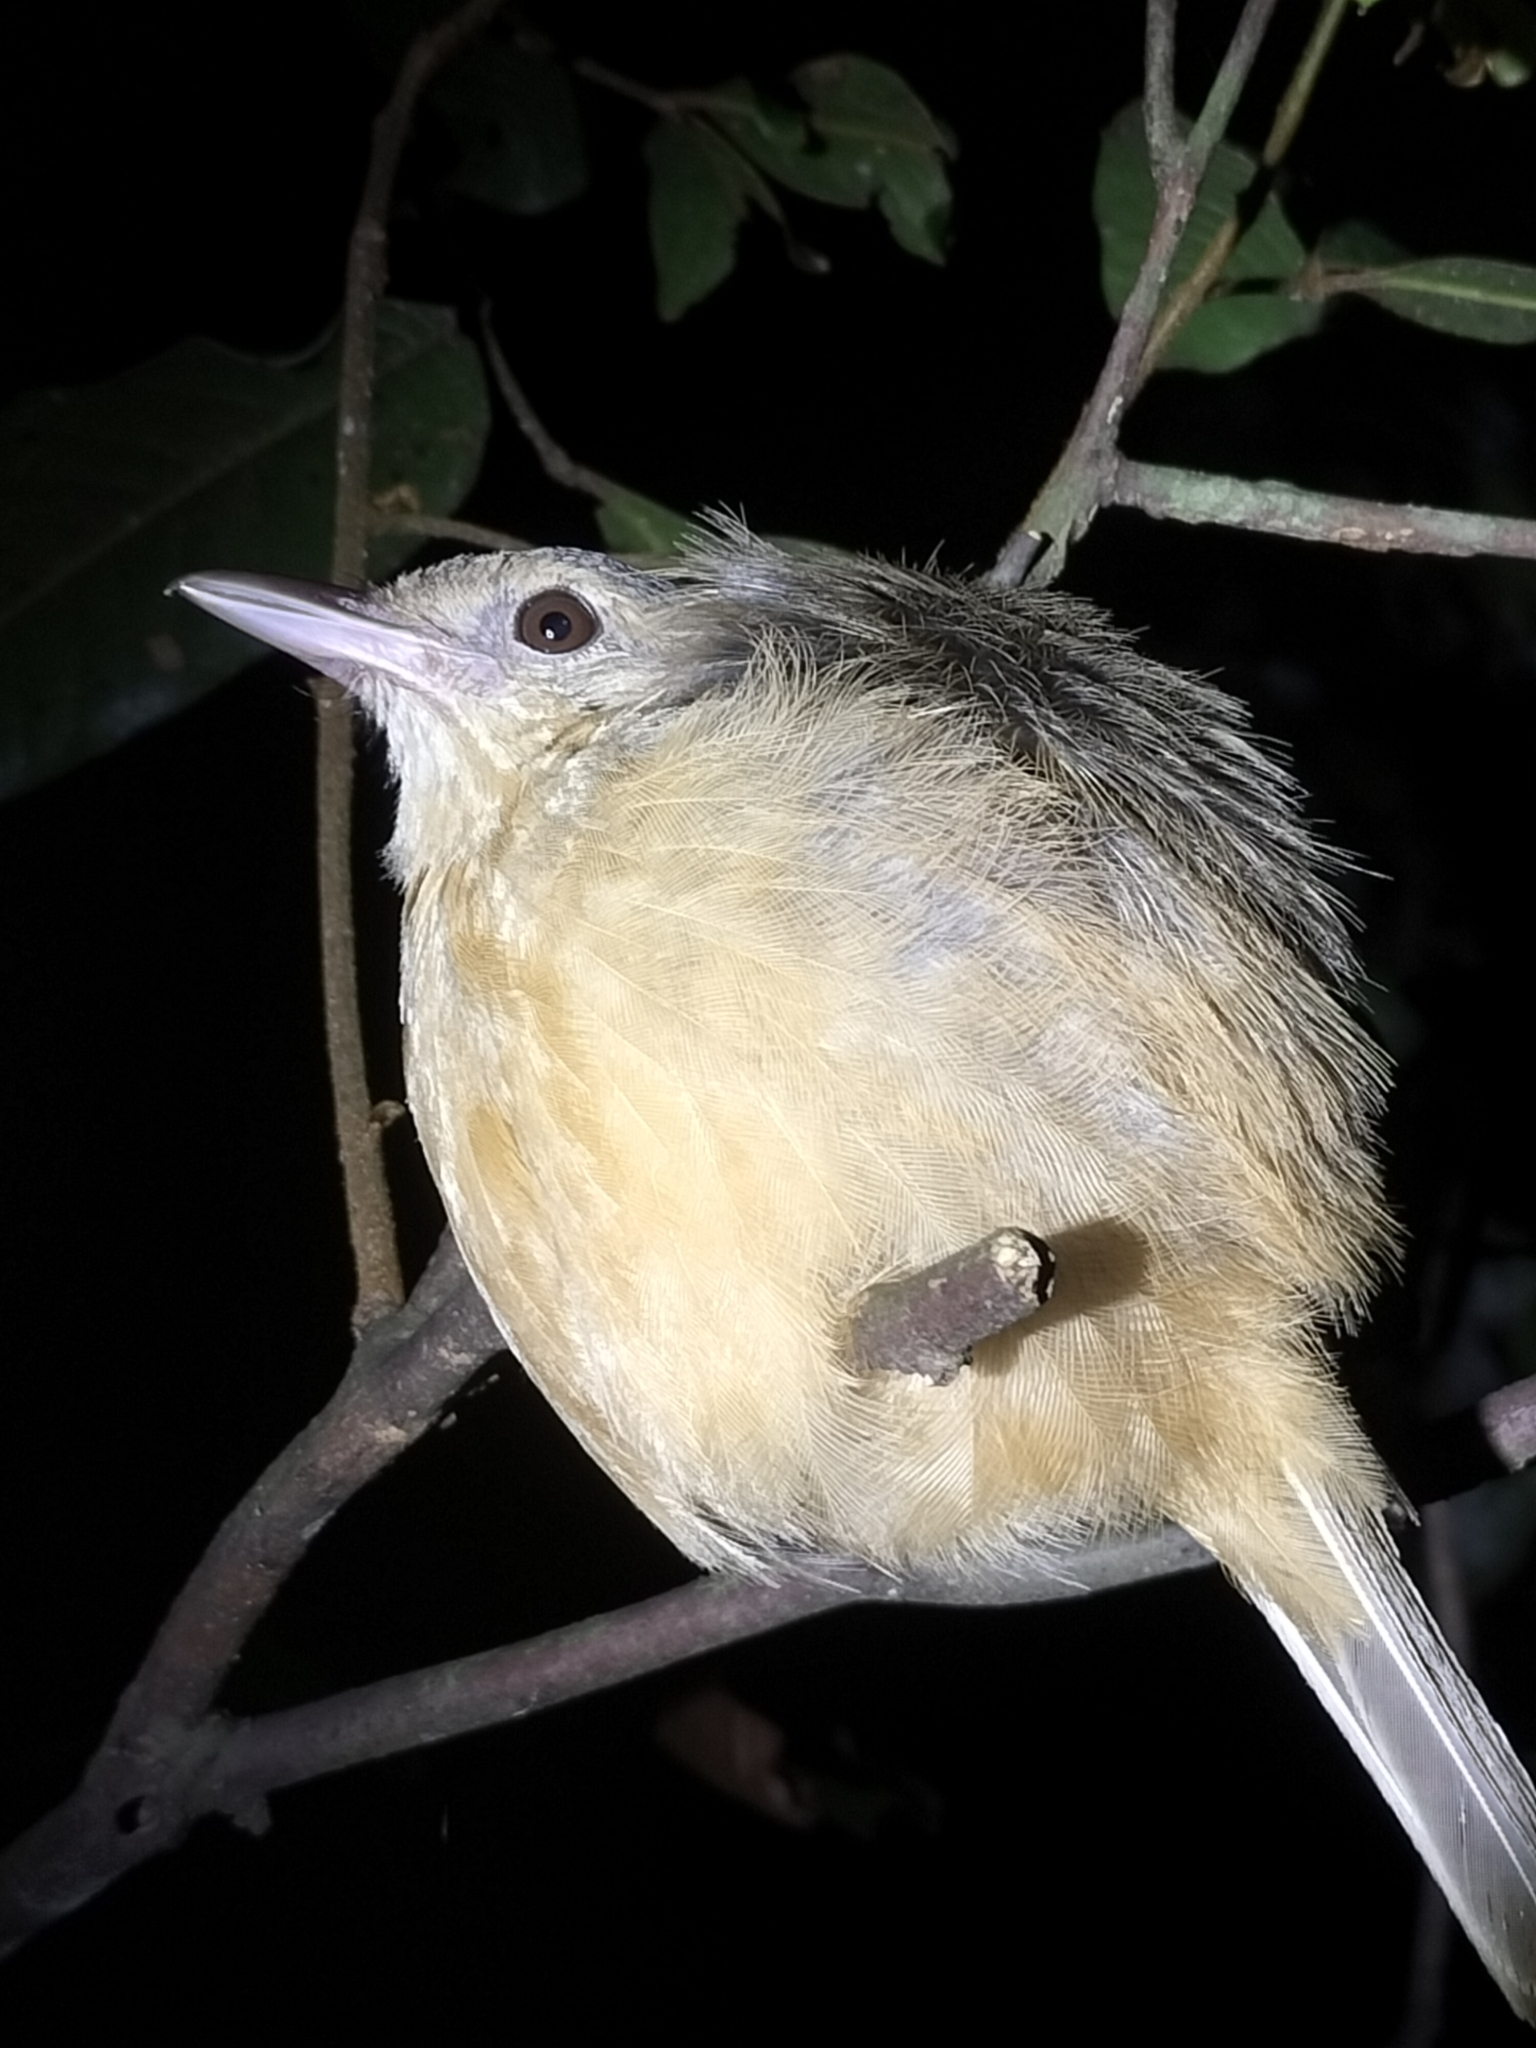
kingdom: Animalia
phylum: Chordata
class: Aves
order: Passeriformes
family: Pachycephalidae
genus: Colluricincla
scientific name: Colluricincla rufogaster
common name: Rufous shrikethrush
